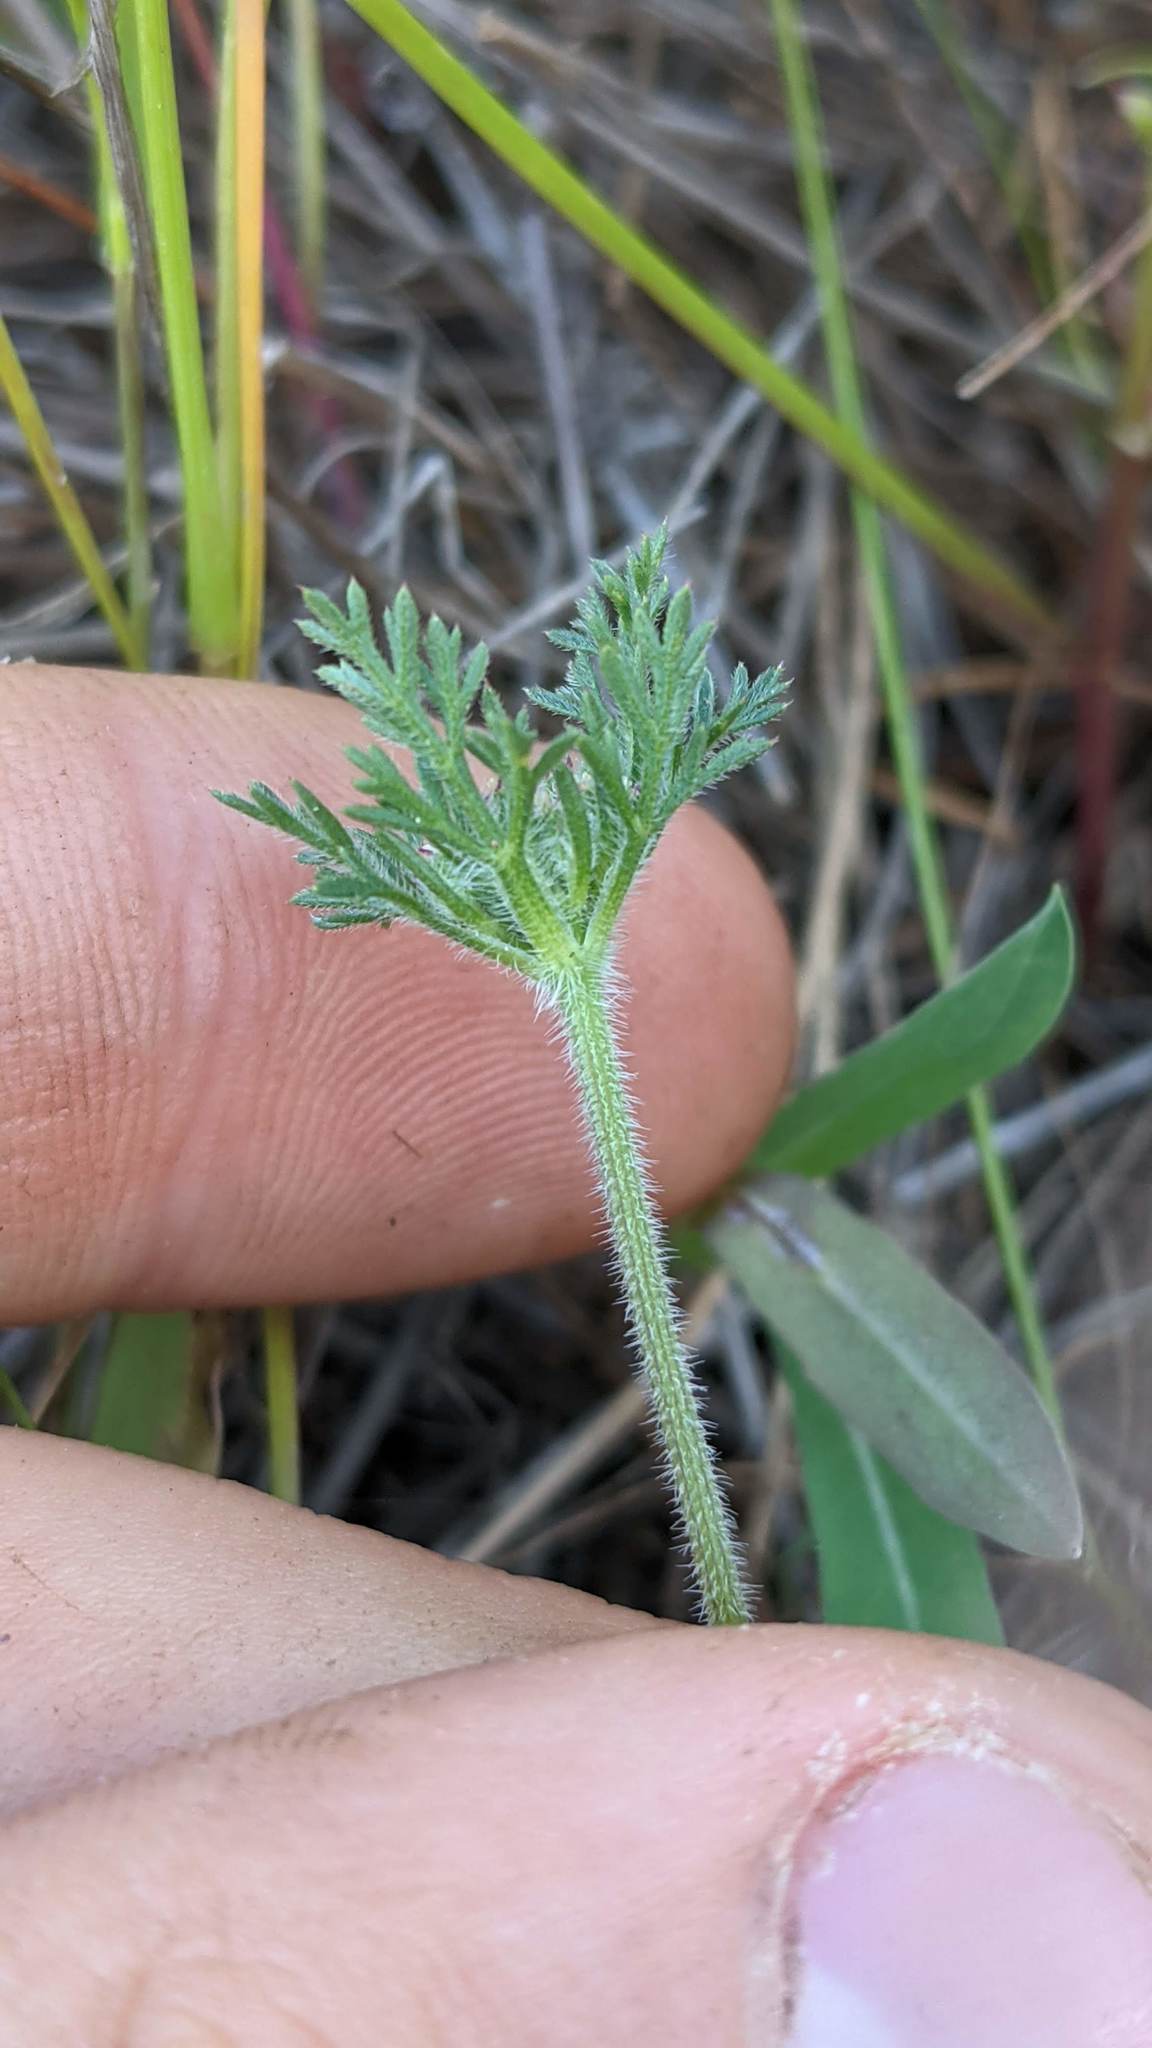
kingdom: Plantae
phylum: Tracheophyta
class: Magnoliopsida
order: Apiales
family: Apiaceae
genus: Daucus
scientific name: Daucus pusillus
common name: Southwest wild carrot
